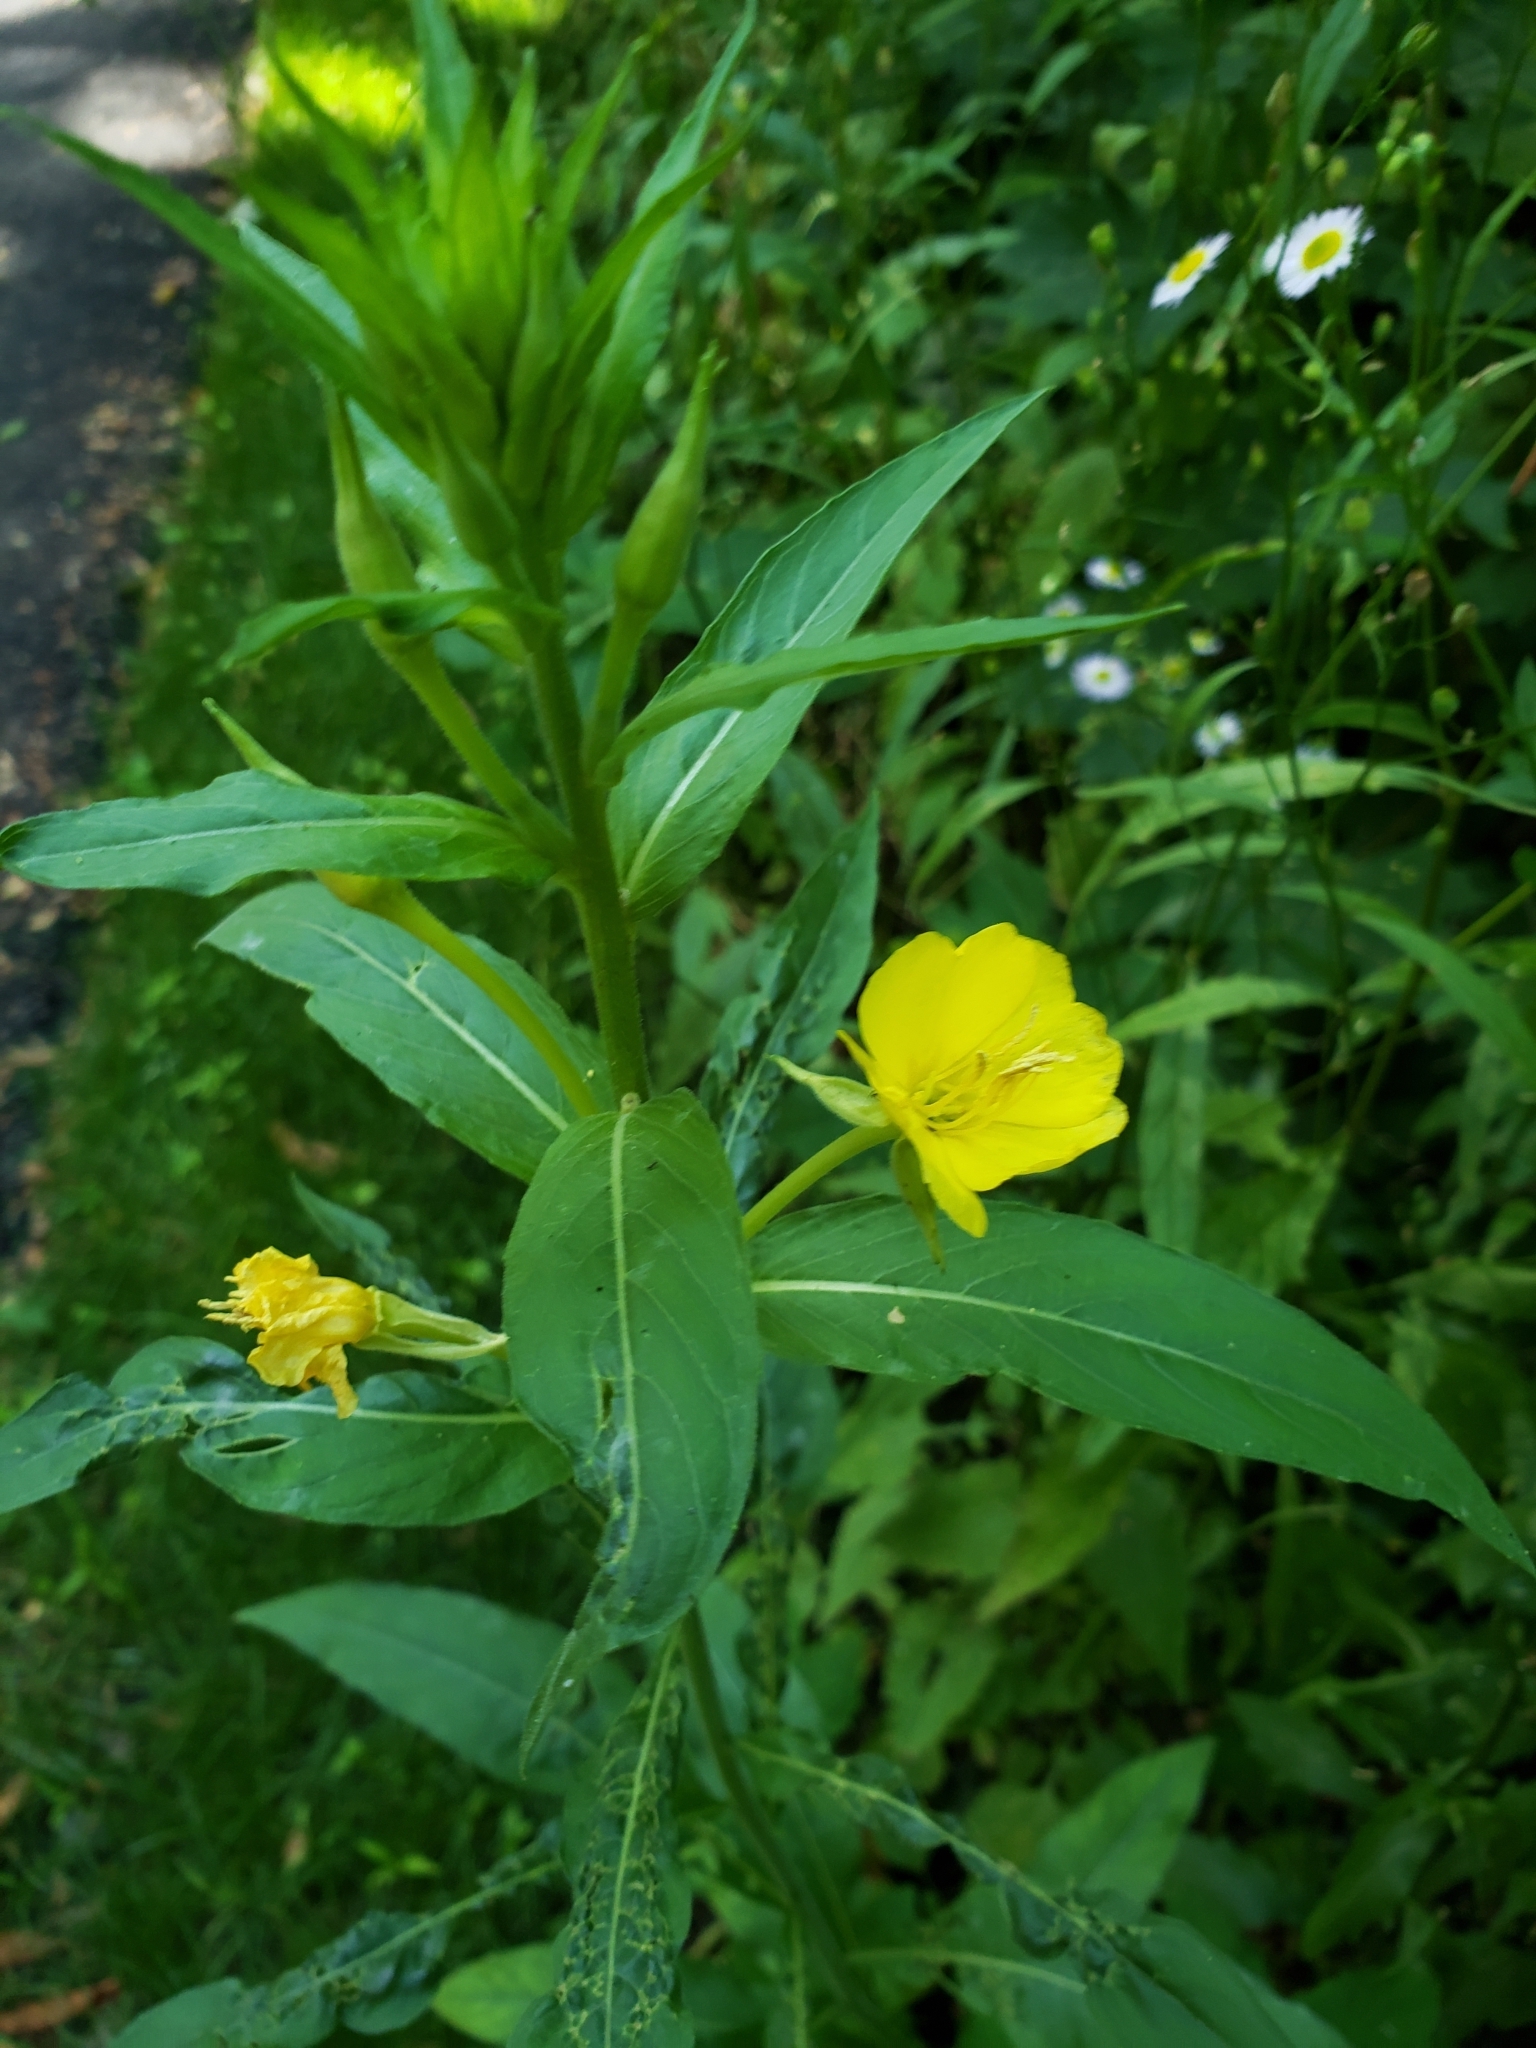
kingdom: Plantae
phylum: Tracheophyta
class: Magnoliopsida
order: Myrtales
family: Onagraceae
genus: Oenothera
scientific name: Oenothera biennis
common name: Common evening-primrose
